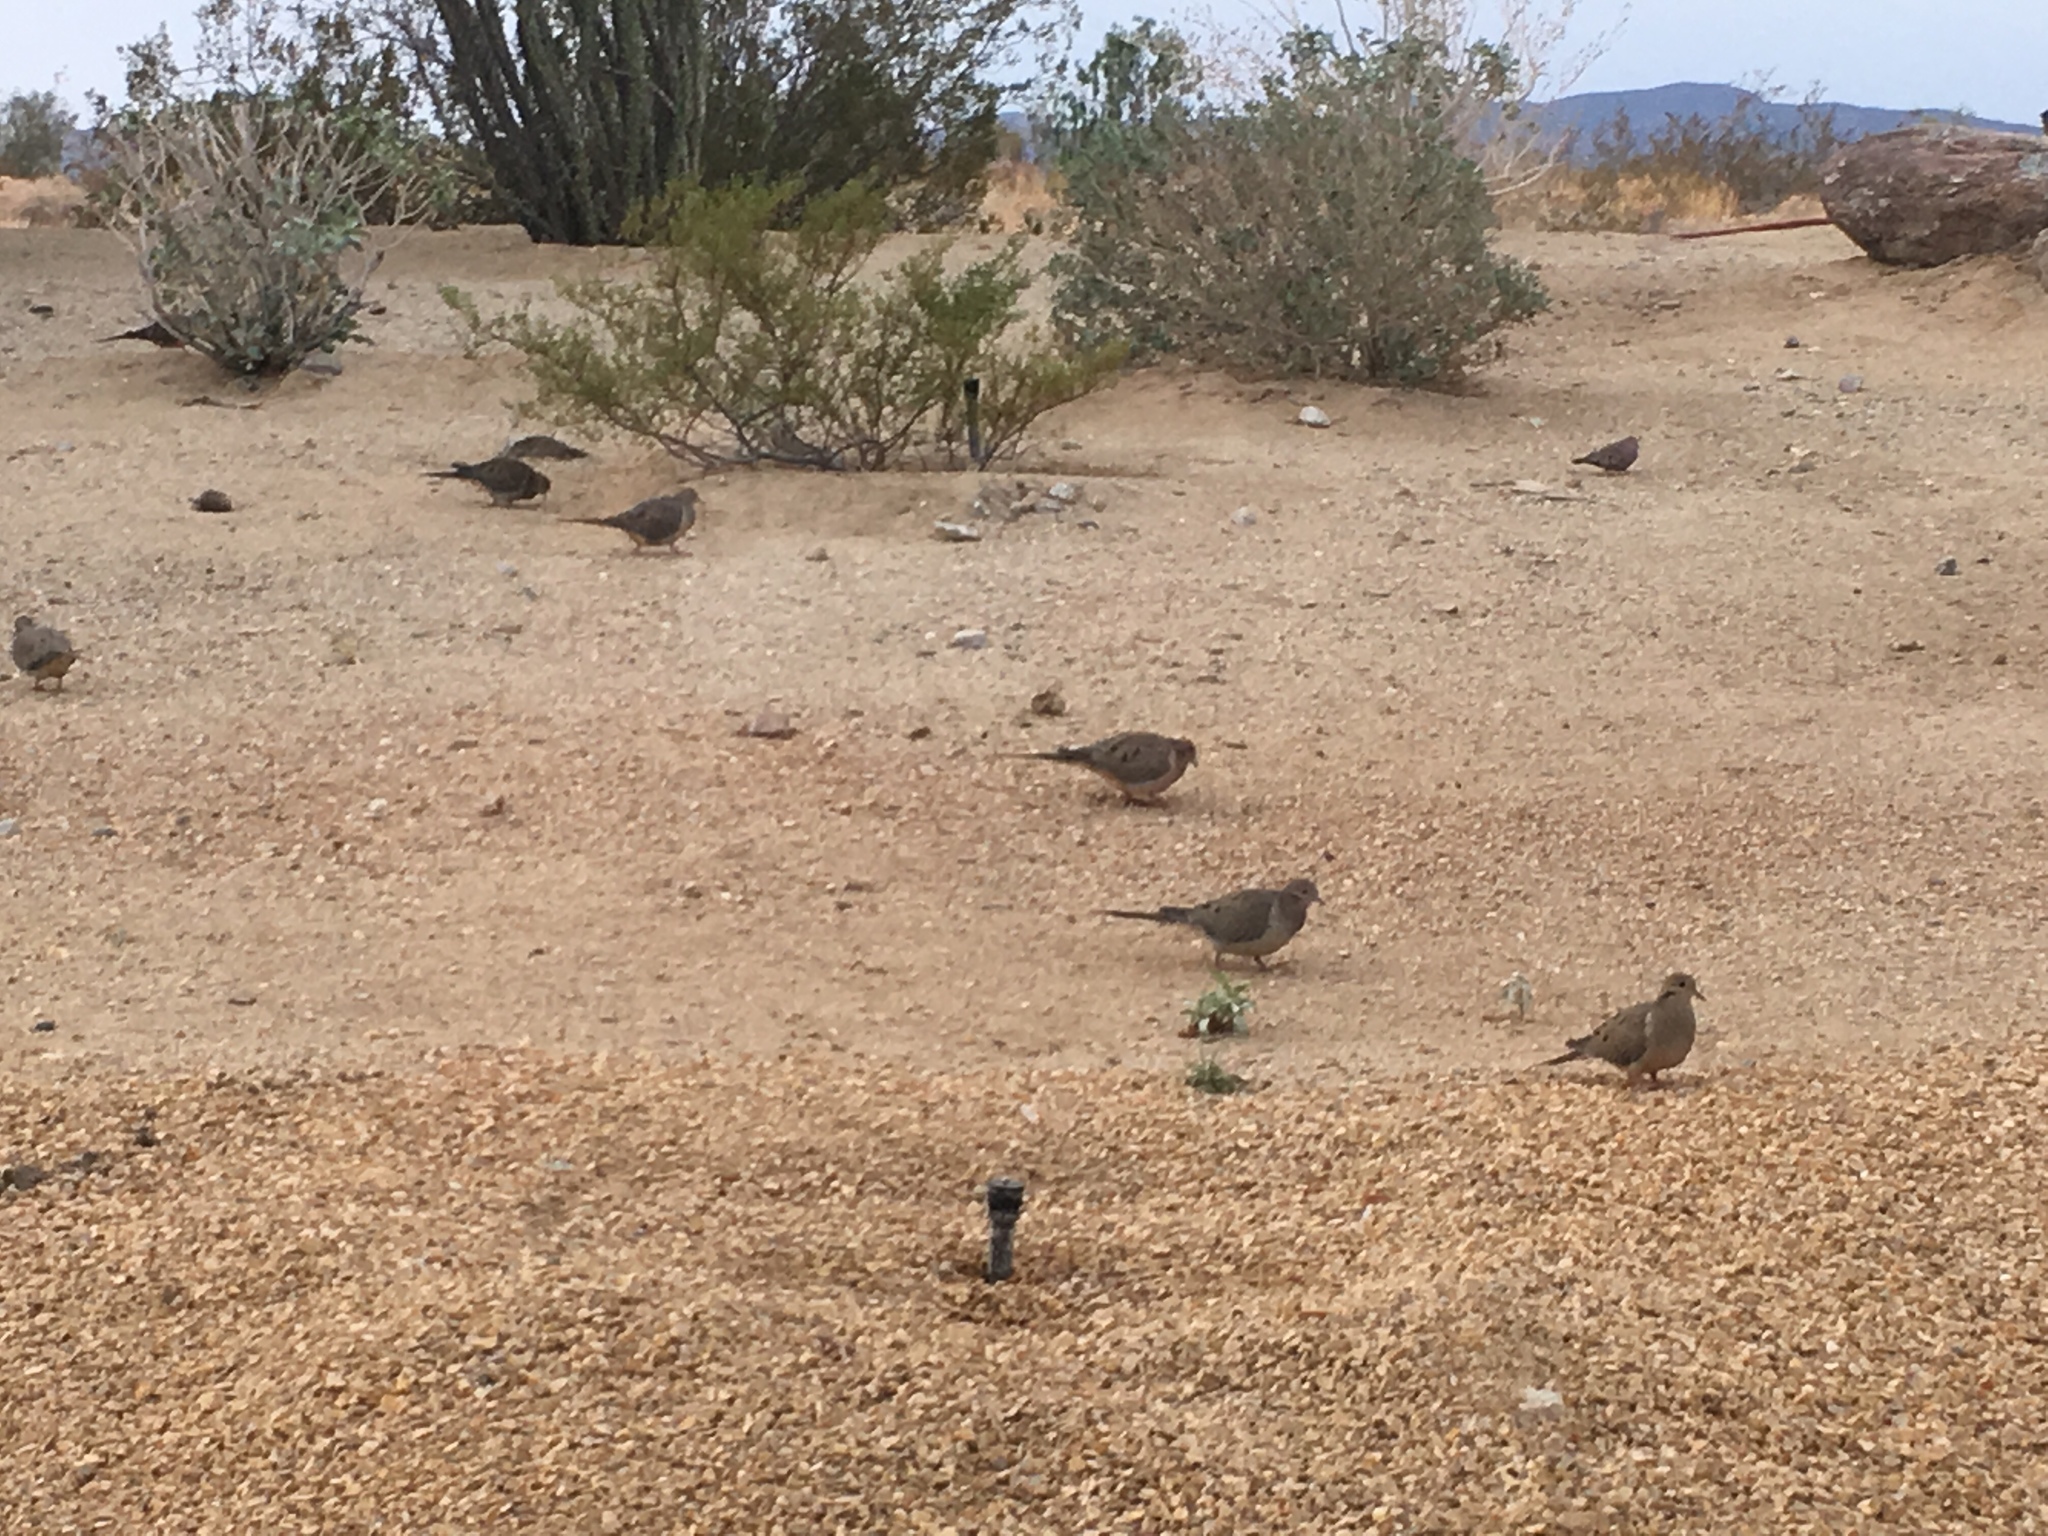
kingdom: Animalia
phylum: Chordata
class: Aves
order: Columbiformes
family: Columbidae
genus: Zenaida
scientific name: Zenaida macroura
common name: Mourning dove
